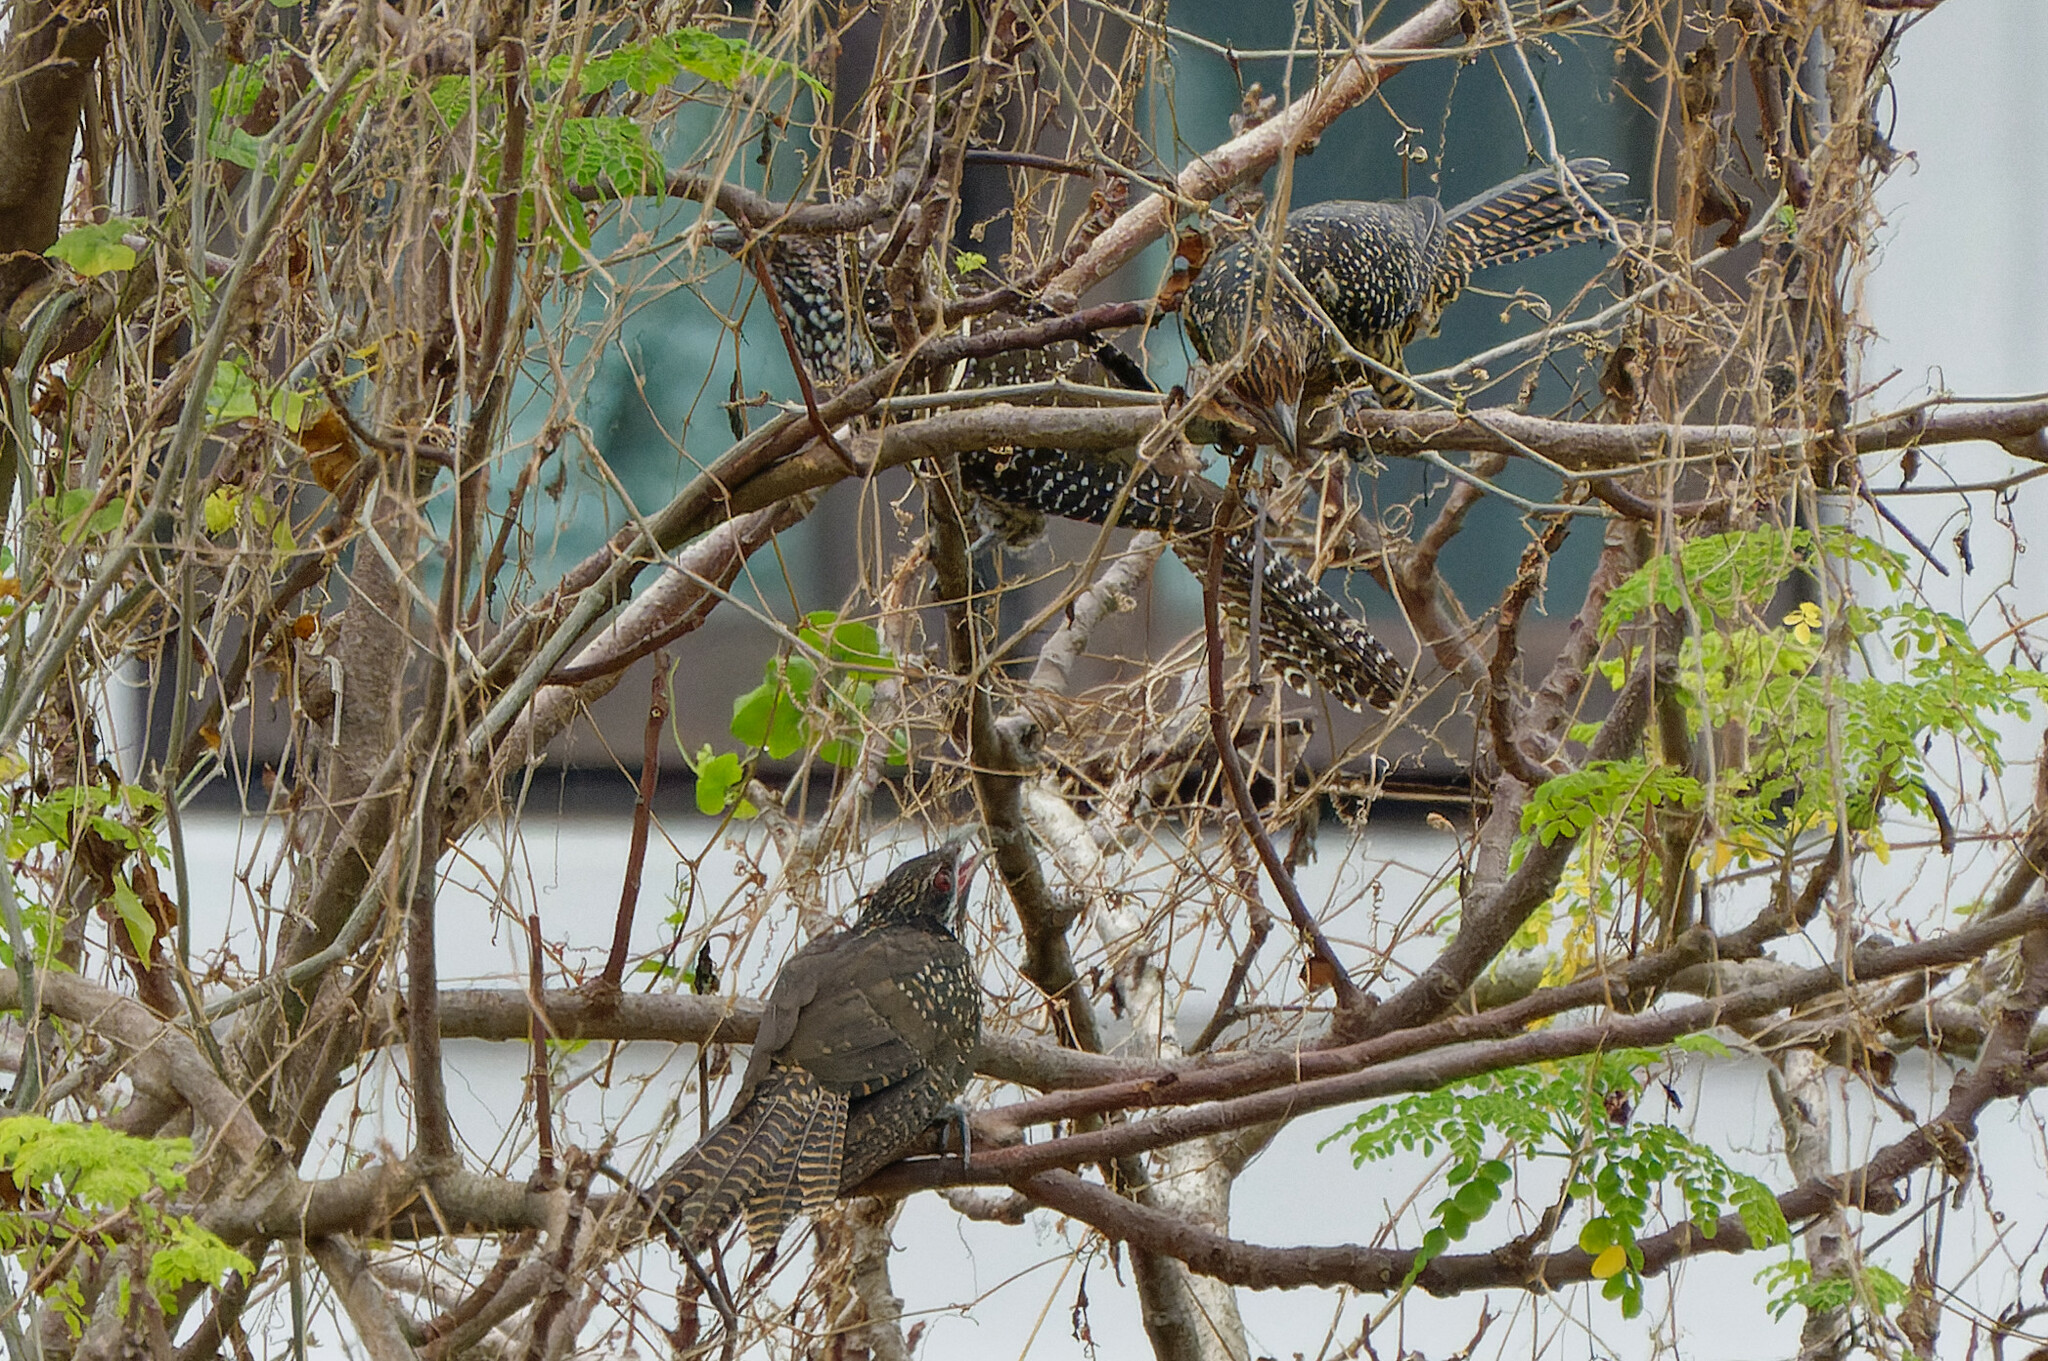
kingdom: Animalia
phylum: Chordata
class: Aves
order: Cuculiformes
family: Cuculidae
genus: Eudynamys
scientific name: Eudynamys scolopaceus
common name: Asian koel
